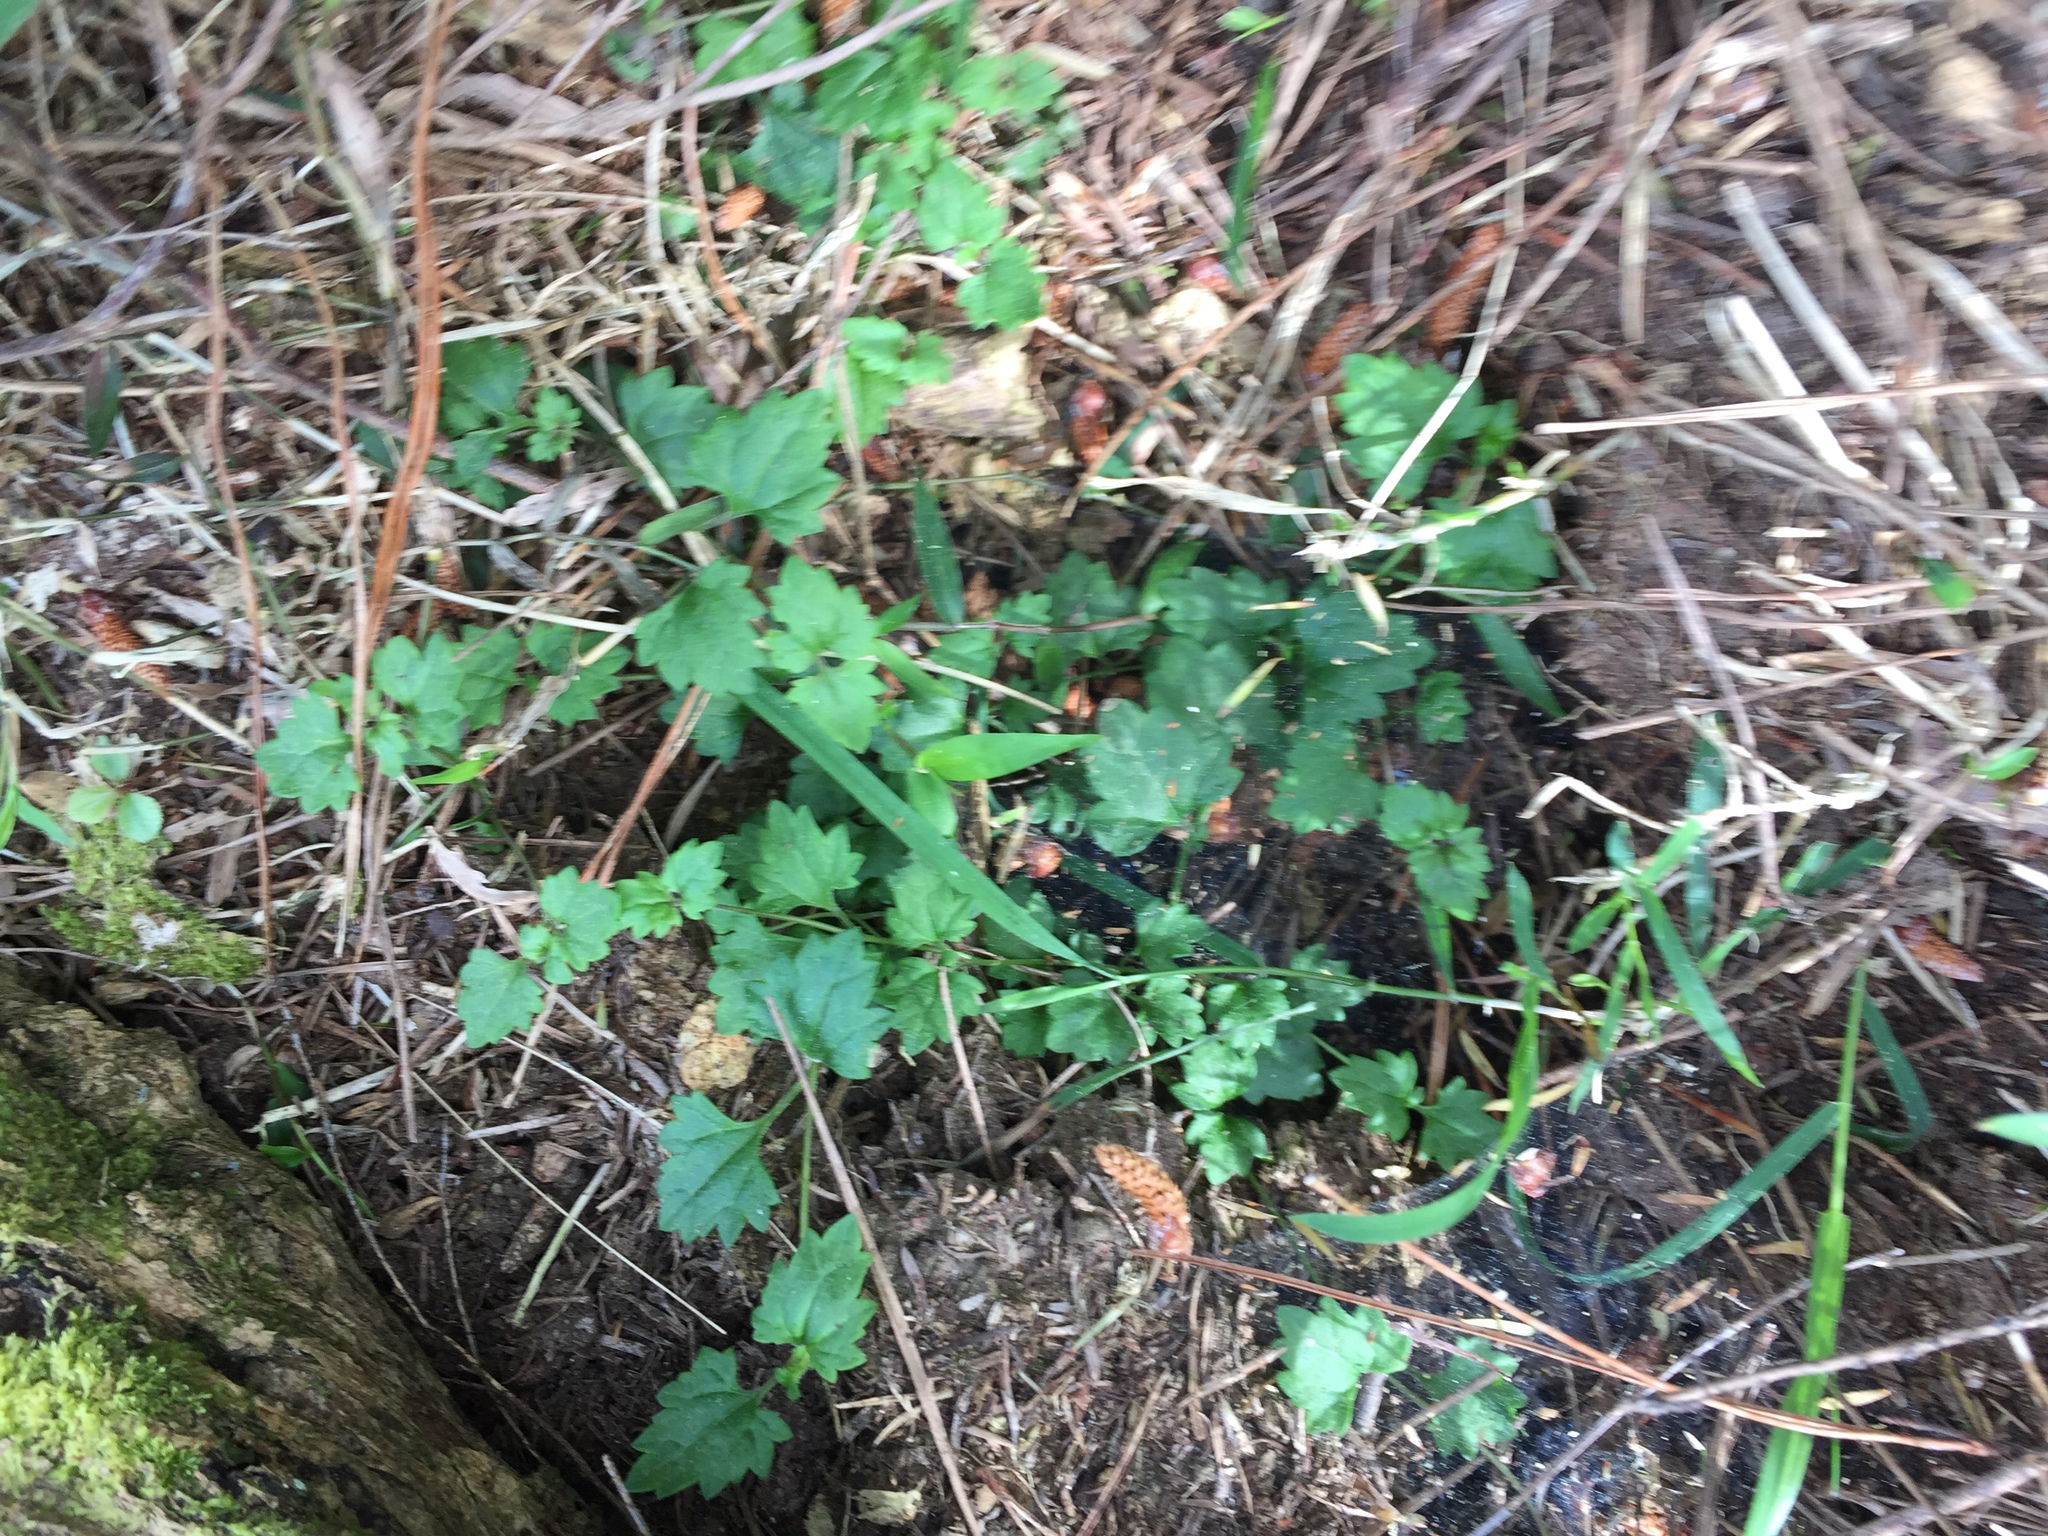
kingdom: Plantae
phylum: Tracheophyta
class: Magnoliopsida
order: Lamiales
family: Plantaginaceae
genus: Veronica
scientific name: Veronica plebeia
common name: Speedwell
